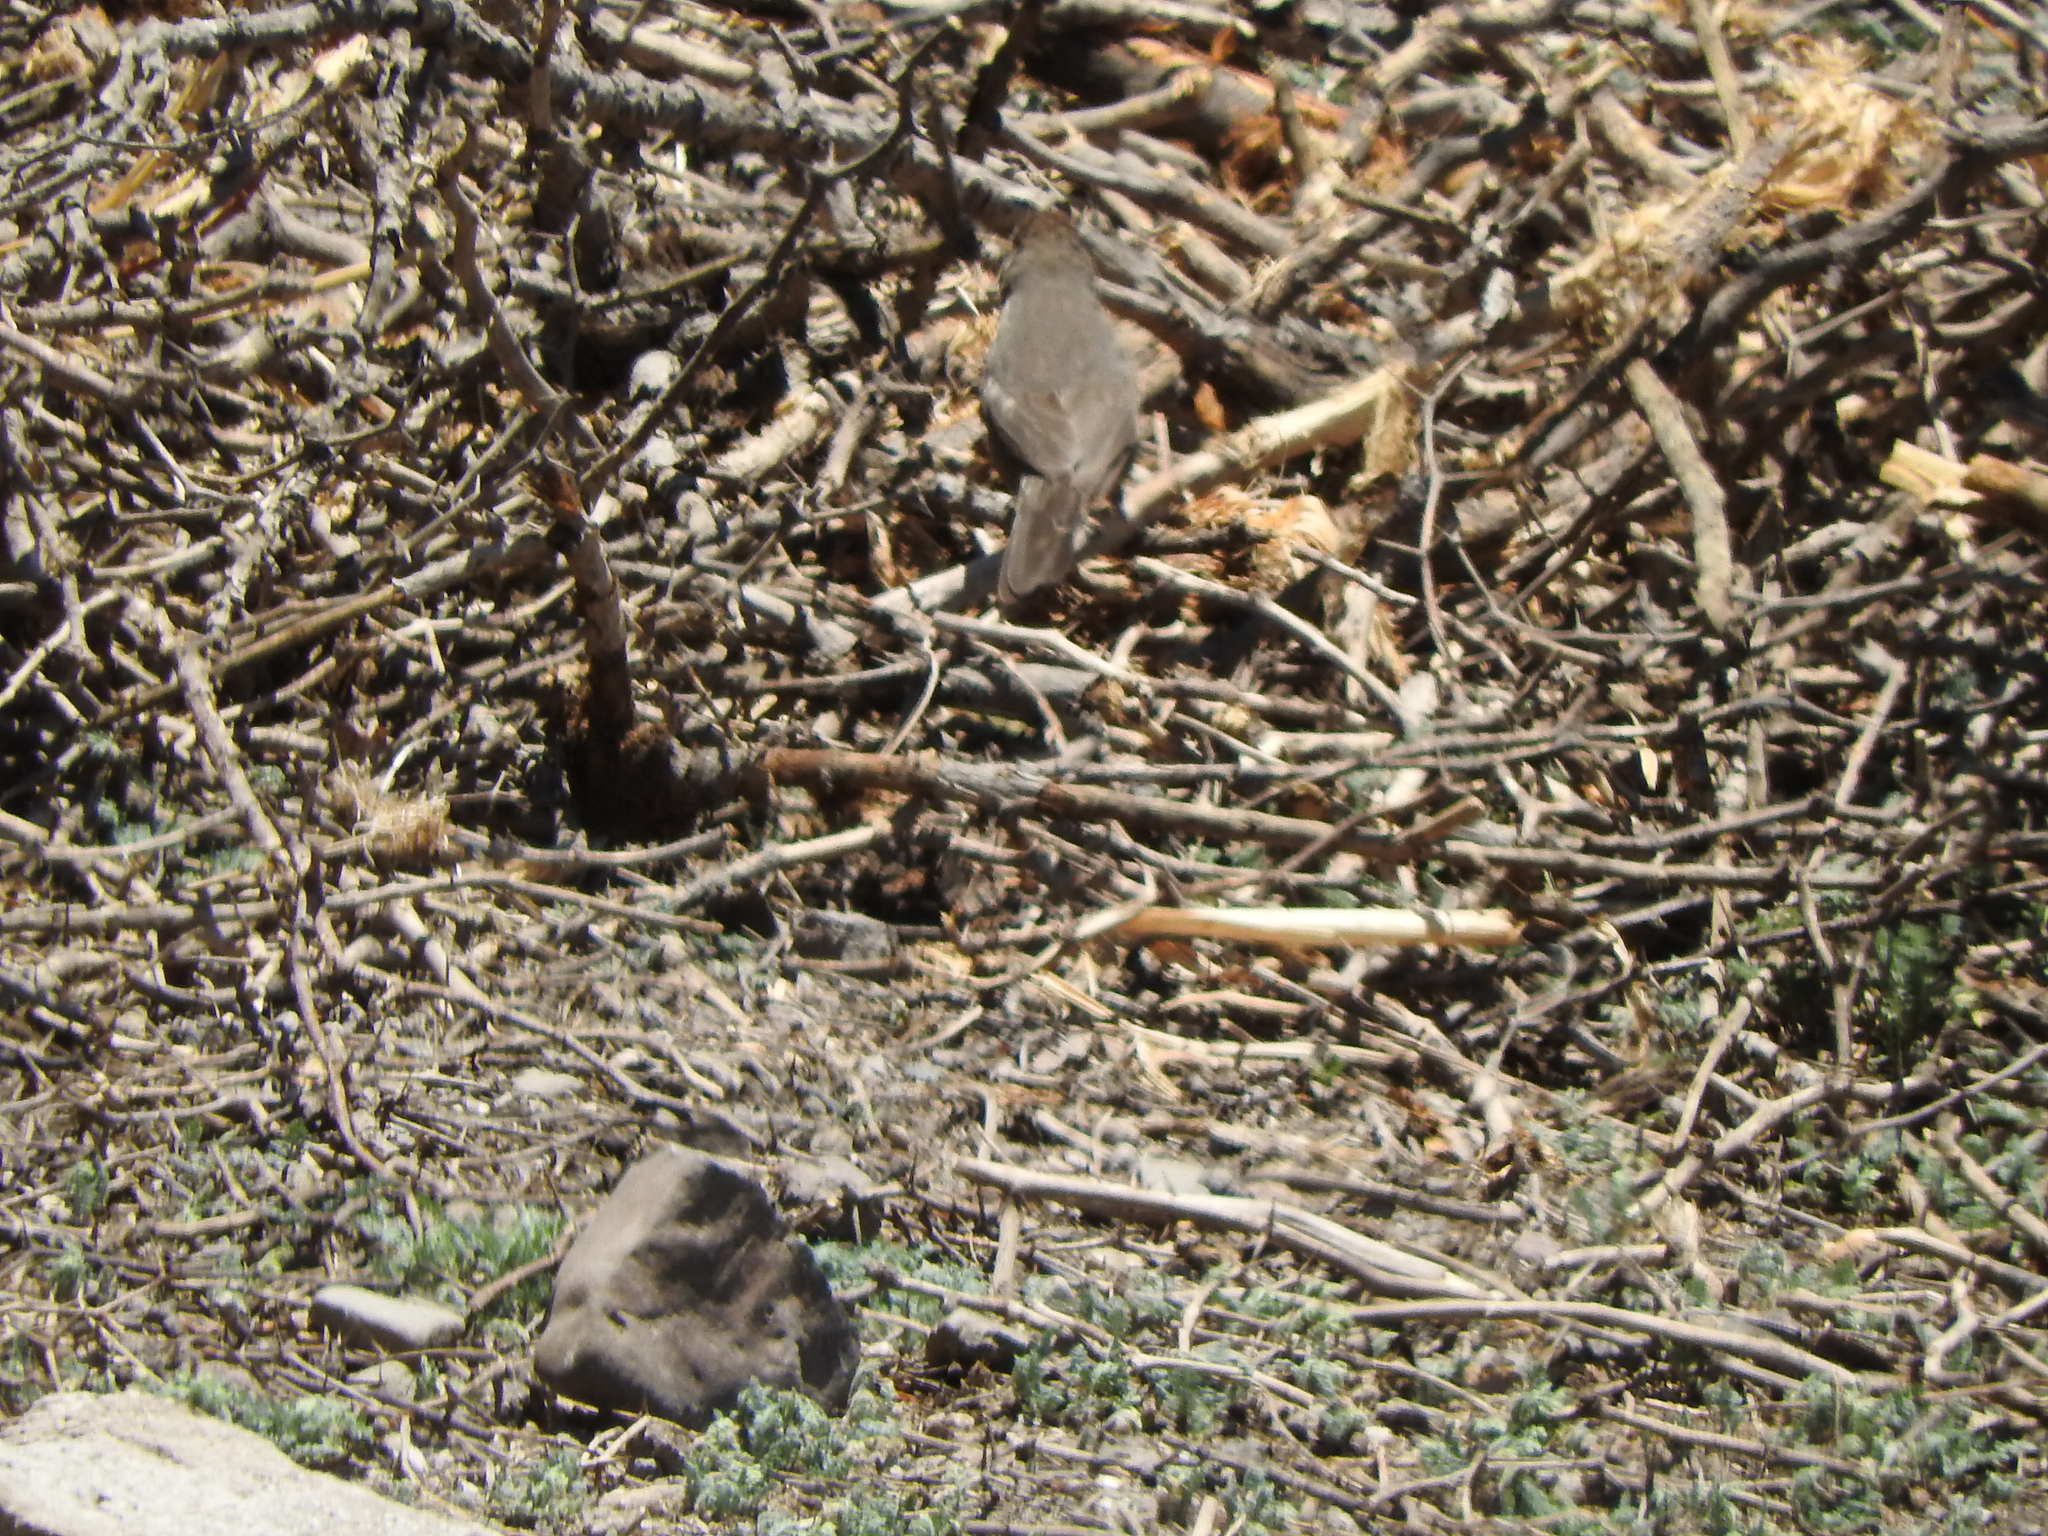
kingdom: Animalia
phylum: Chordata
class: Aves
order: Passeriformes
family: Passerellidae
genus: Melozone
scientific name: Melozone fusca
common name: Canyon towhee
